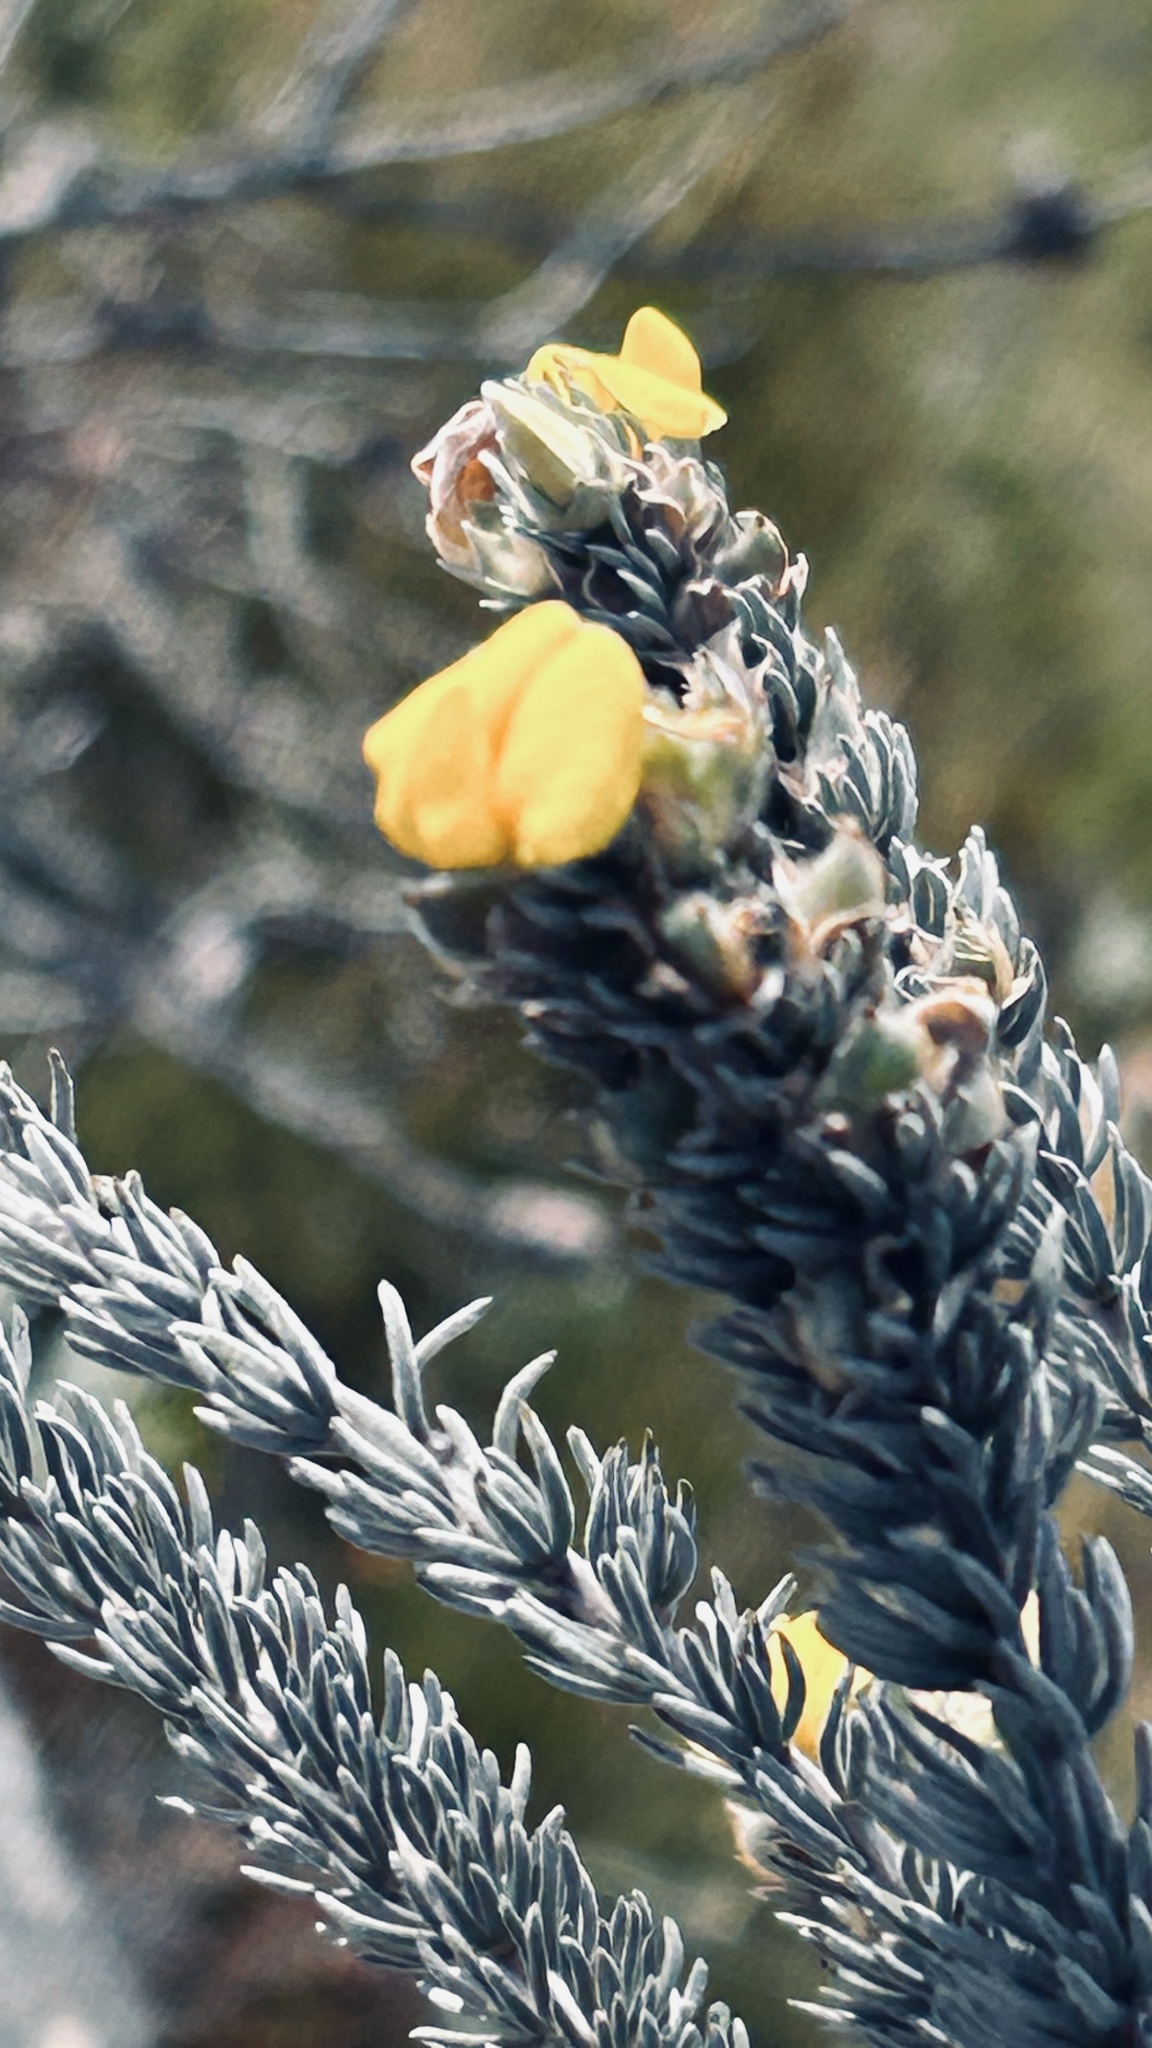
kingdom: Plantae
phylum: Tracheophyta
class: Magnoliopsida
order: Fabales
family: Fabaceae
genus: Aspalathus
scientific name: Aspalathus nickhelmei
